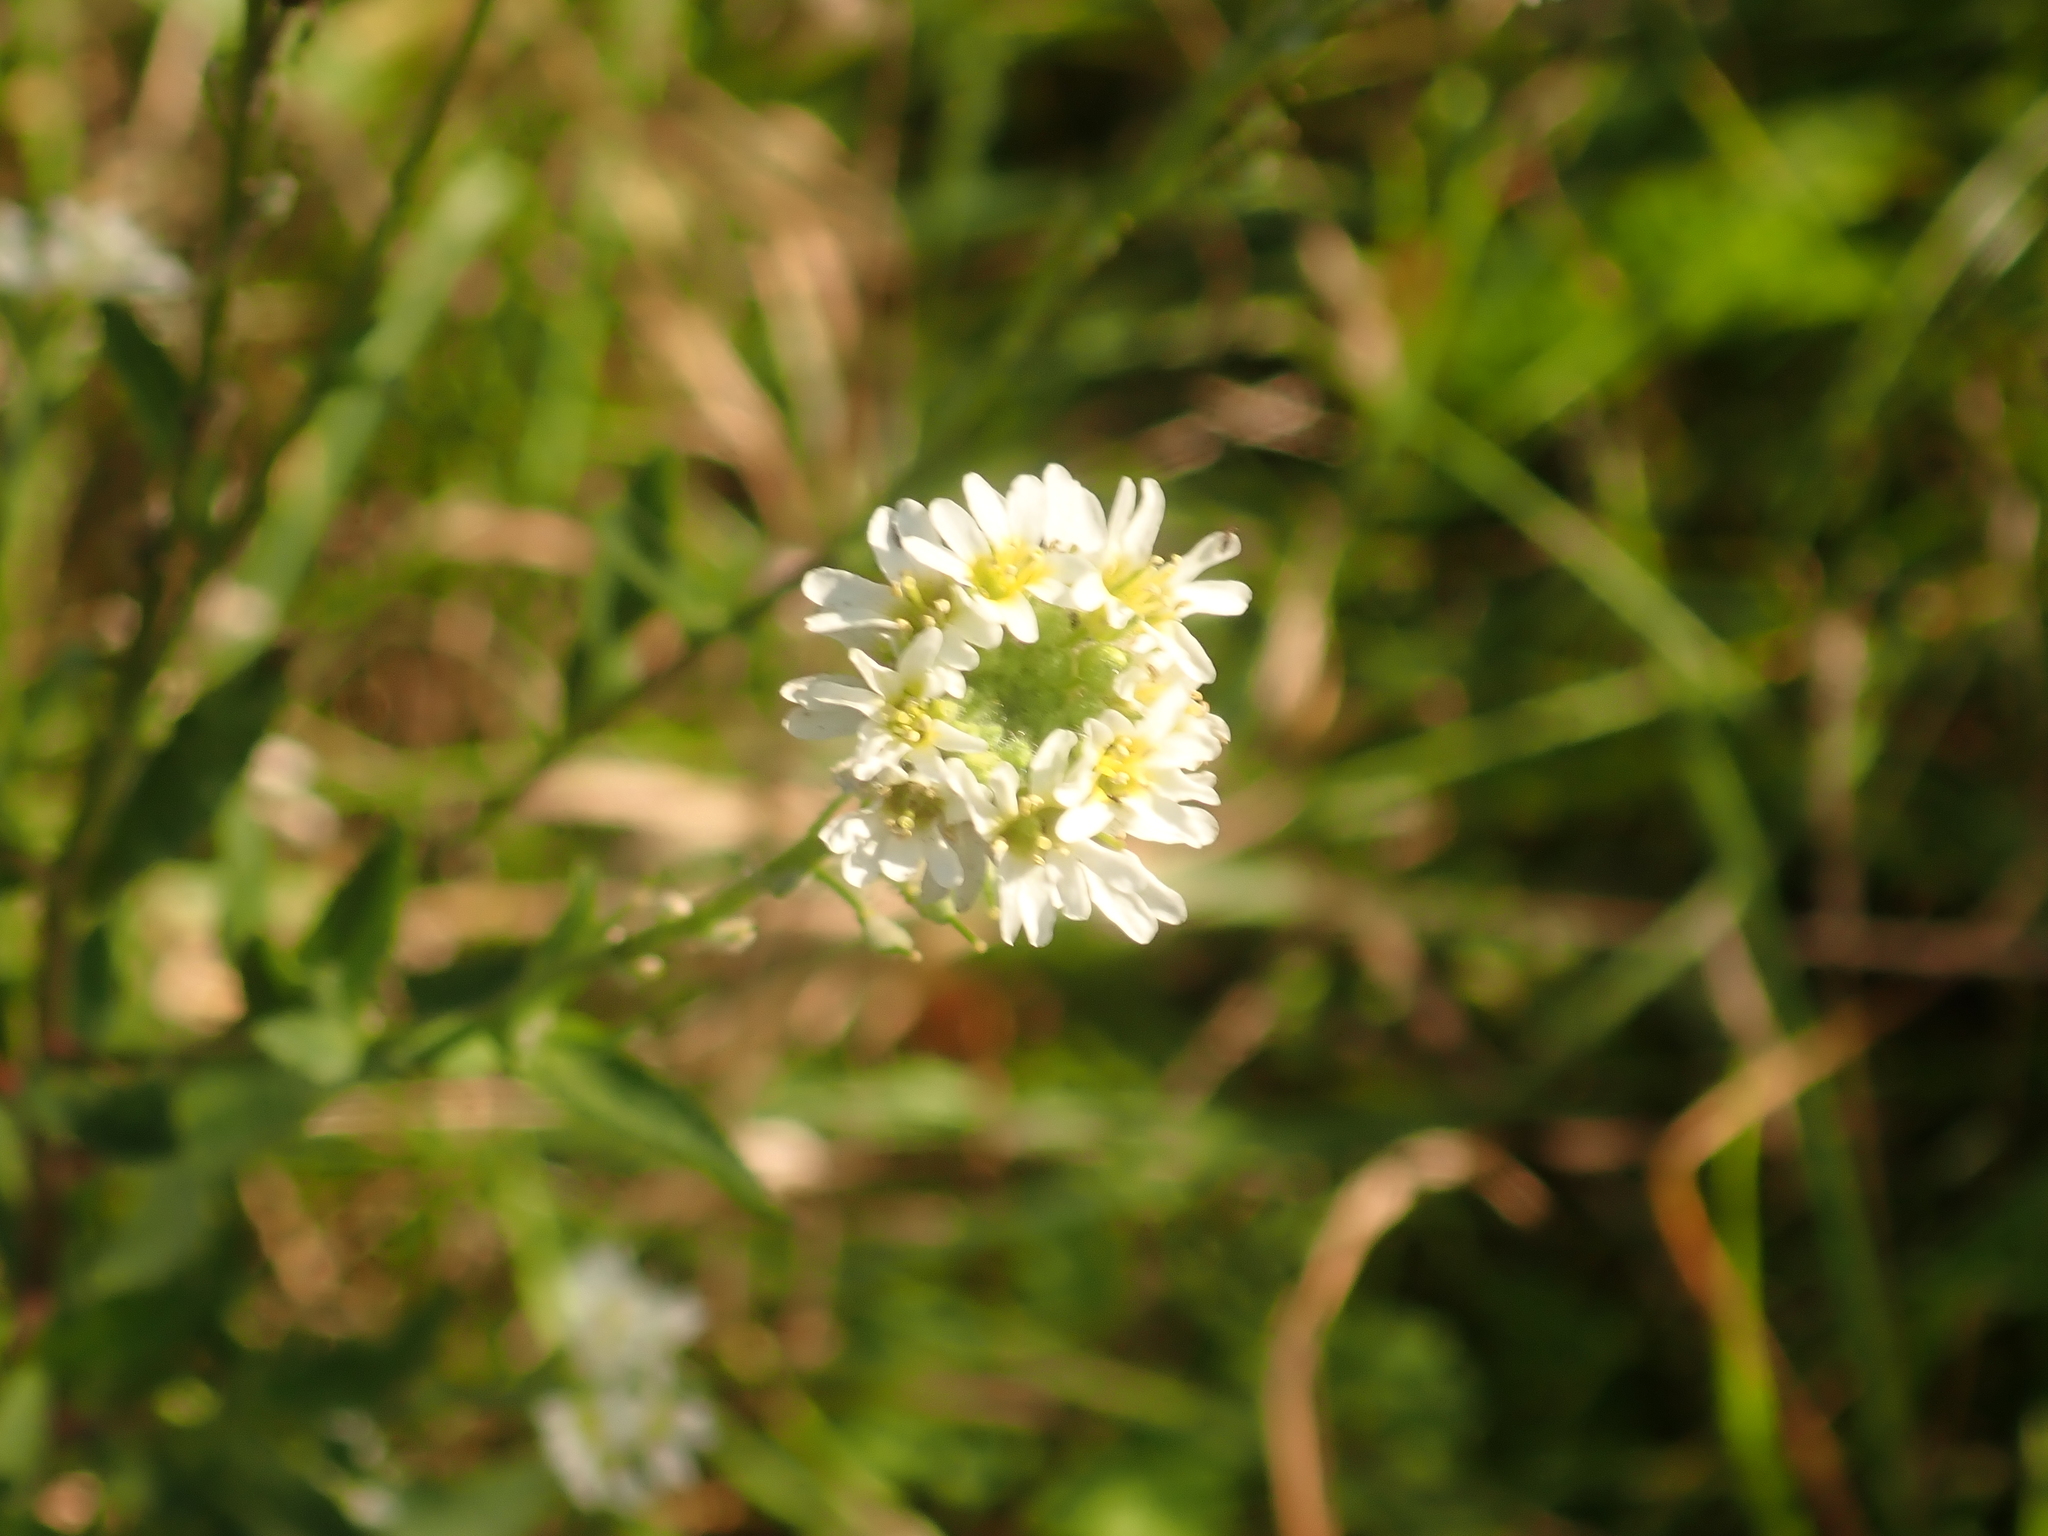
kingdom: Plantae
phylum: Tracheophyta
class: Magnoliopsida
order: Brassicales
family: Brassicaceae
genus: Berteroa
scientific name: Berteroa incana
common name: Hoary alison
